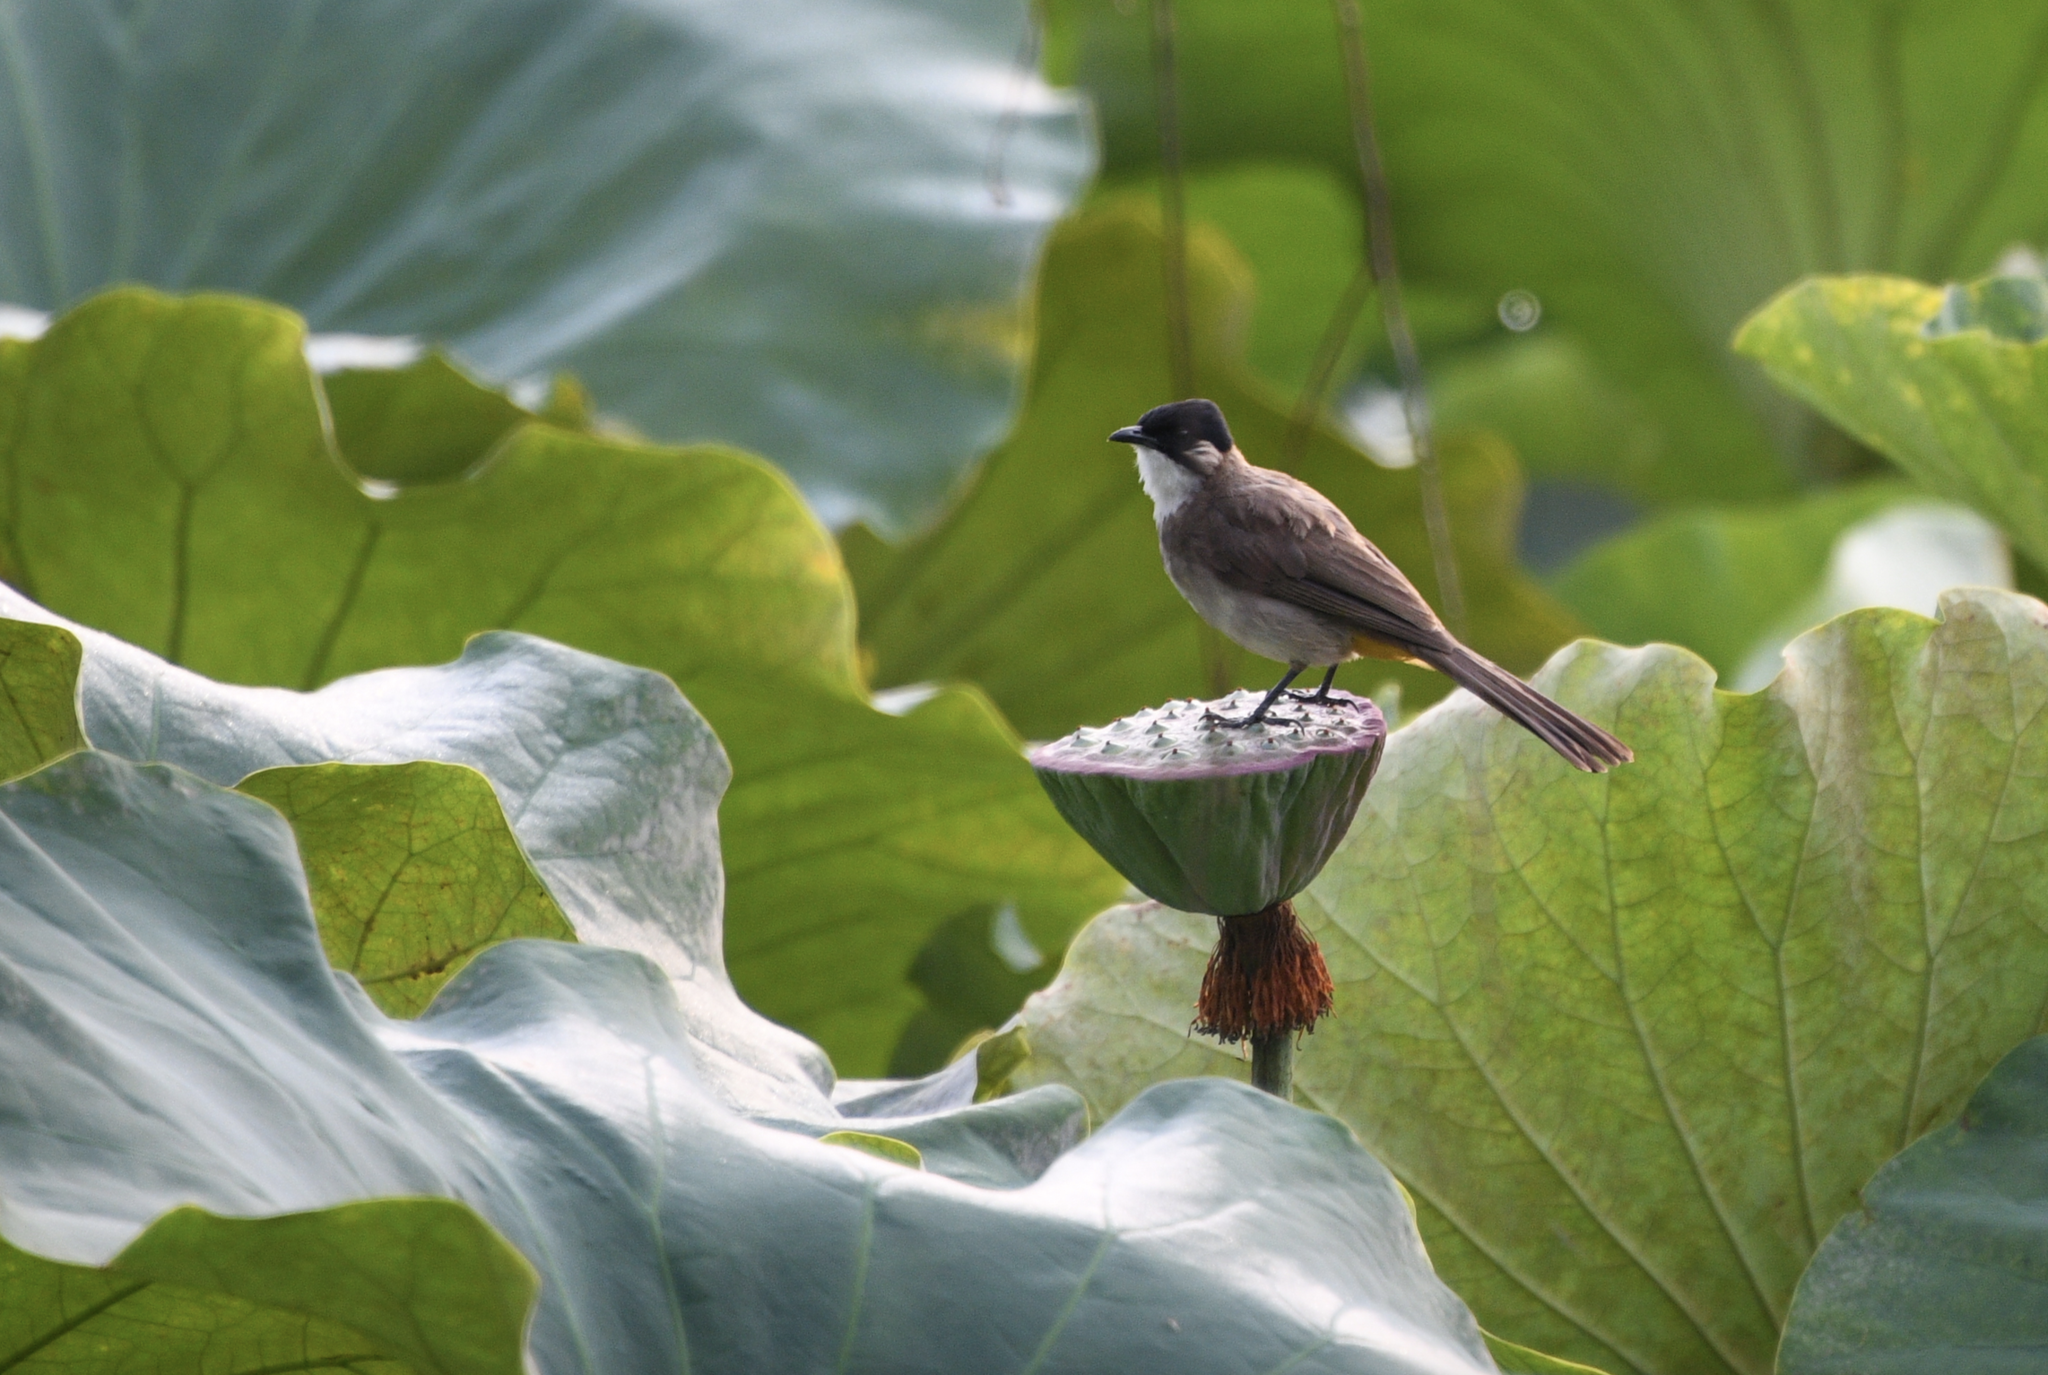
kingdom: Animalia
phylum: Chordata
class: Aves
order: Passeriformes
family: Pycnonotidae
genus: Pycnonotus
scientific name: Pycnonotus xanthorrhous
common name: Brown-breasted bulbul
